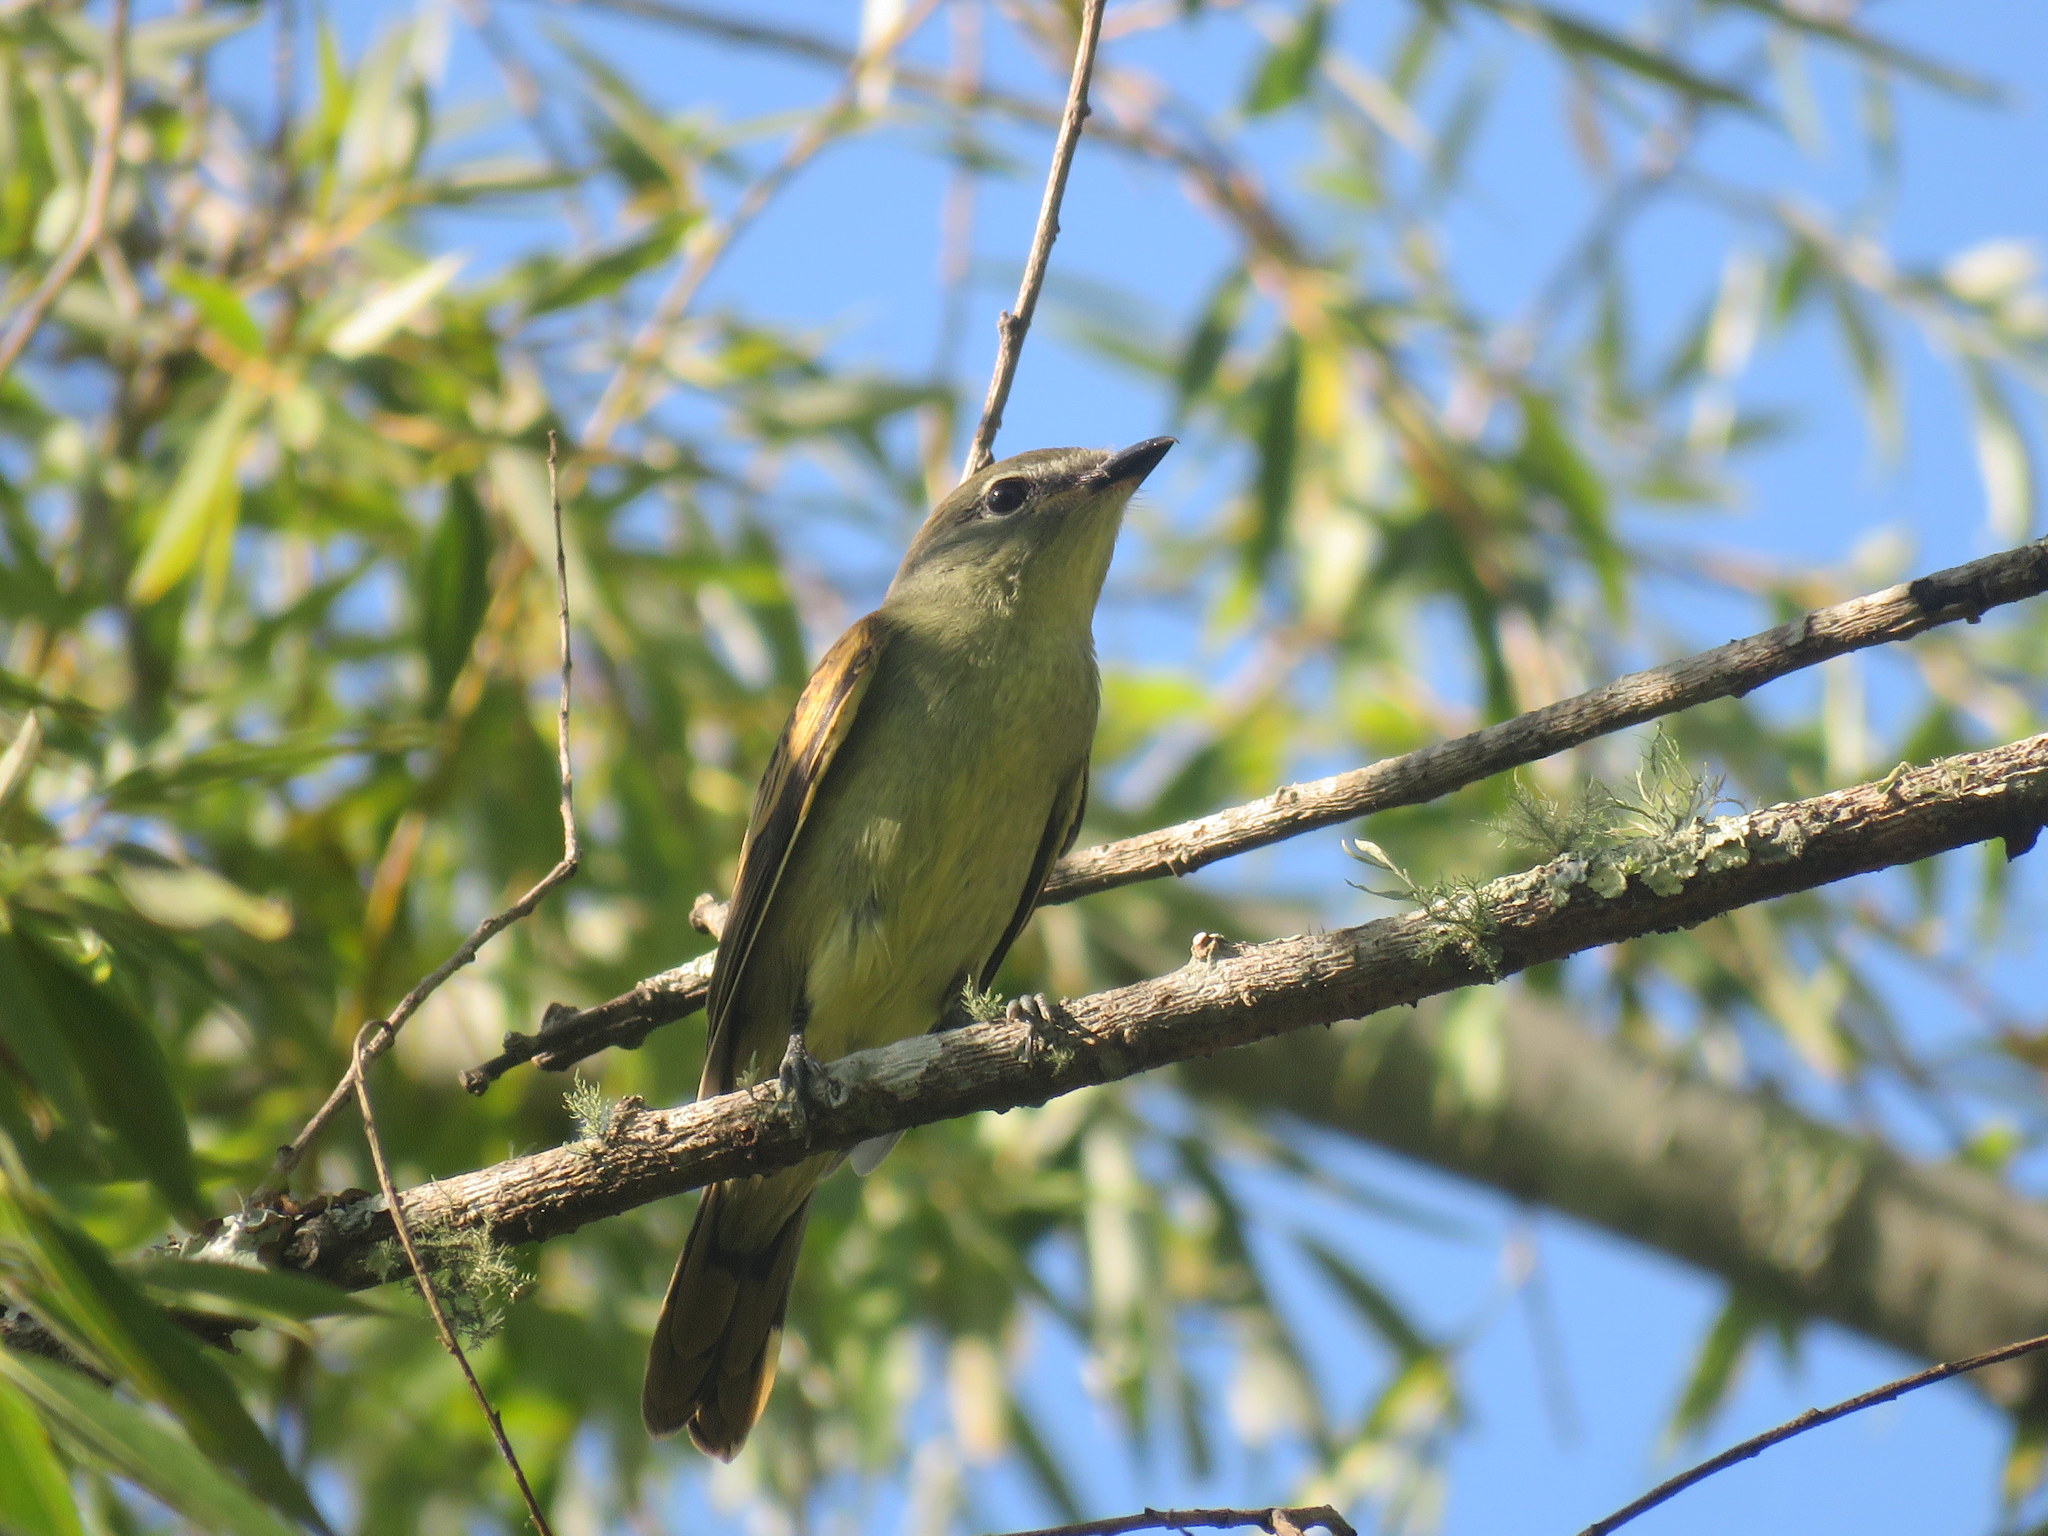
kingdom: Animalia
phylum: Chordata
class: Aves
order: Passeriformes
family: Cotingidae
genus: Pachyramphus
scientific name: Pachyramphus polychopterus
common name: White-winged becard
